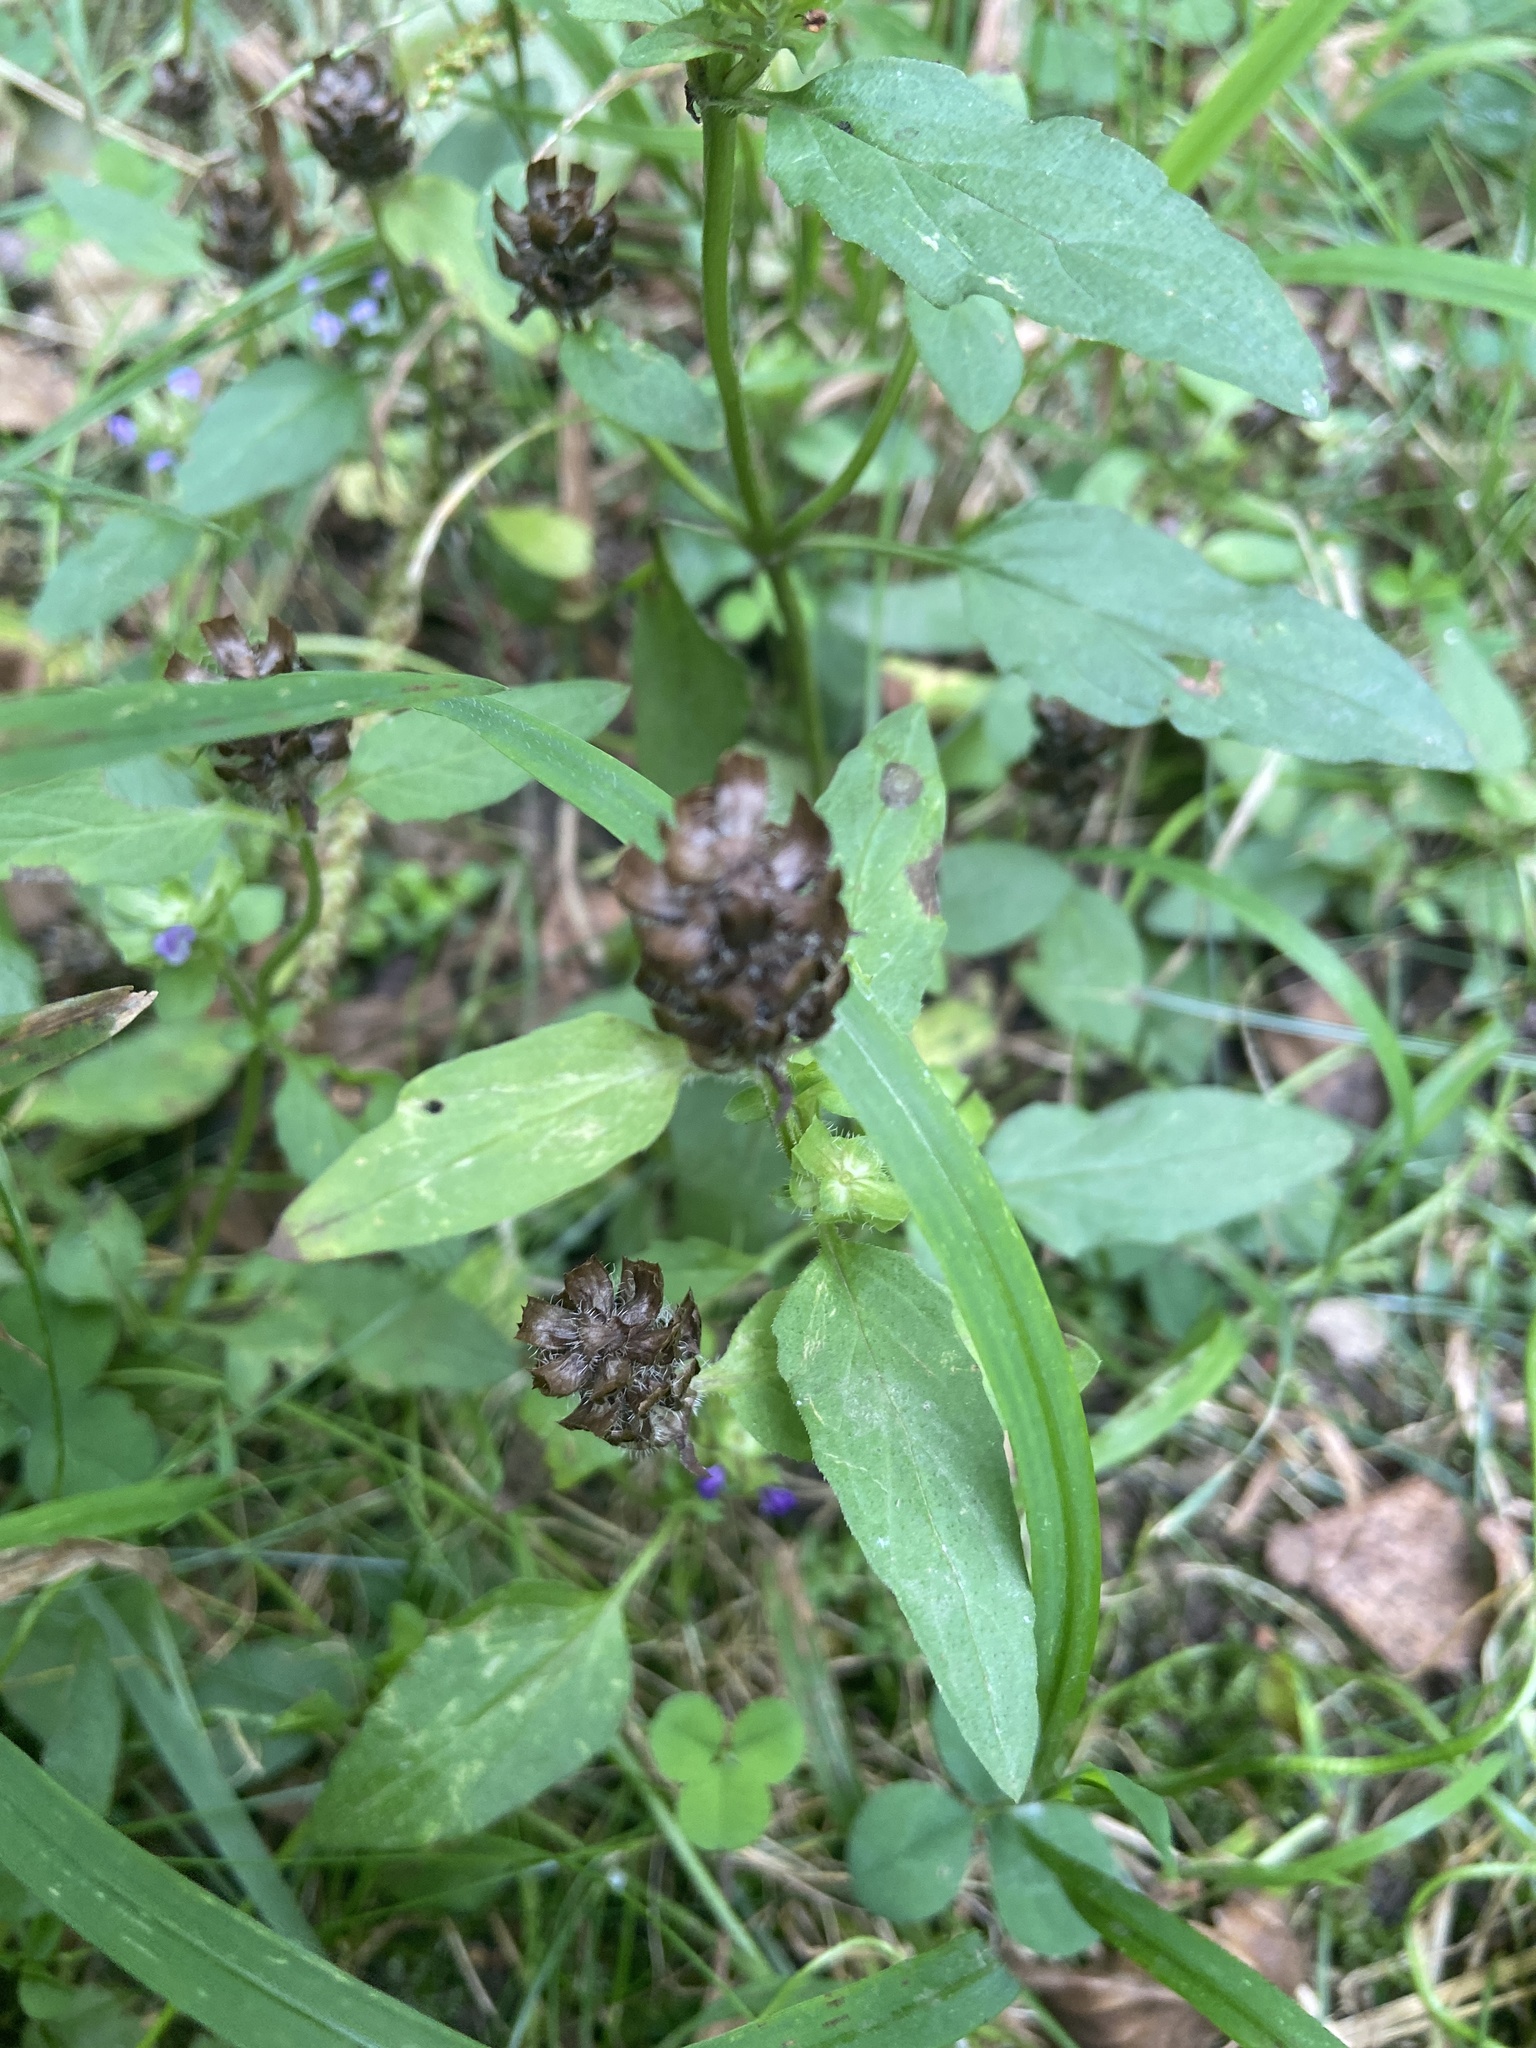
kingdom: Plantae
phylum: Tracheophyta
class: Magnoliopsida
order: Lamiales
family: Lamiaceae
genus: Prunella
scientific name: Prunella vulgaris
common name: Heal-all
